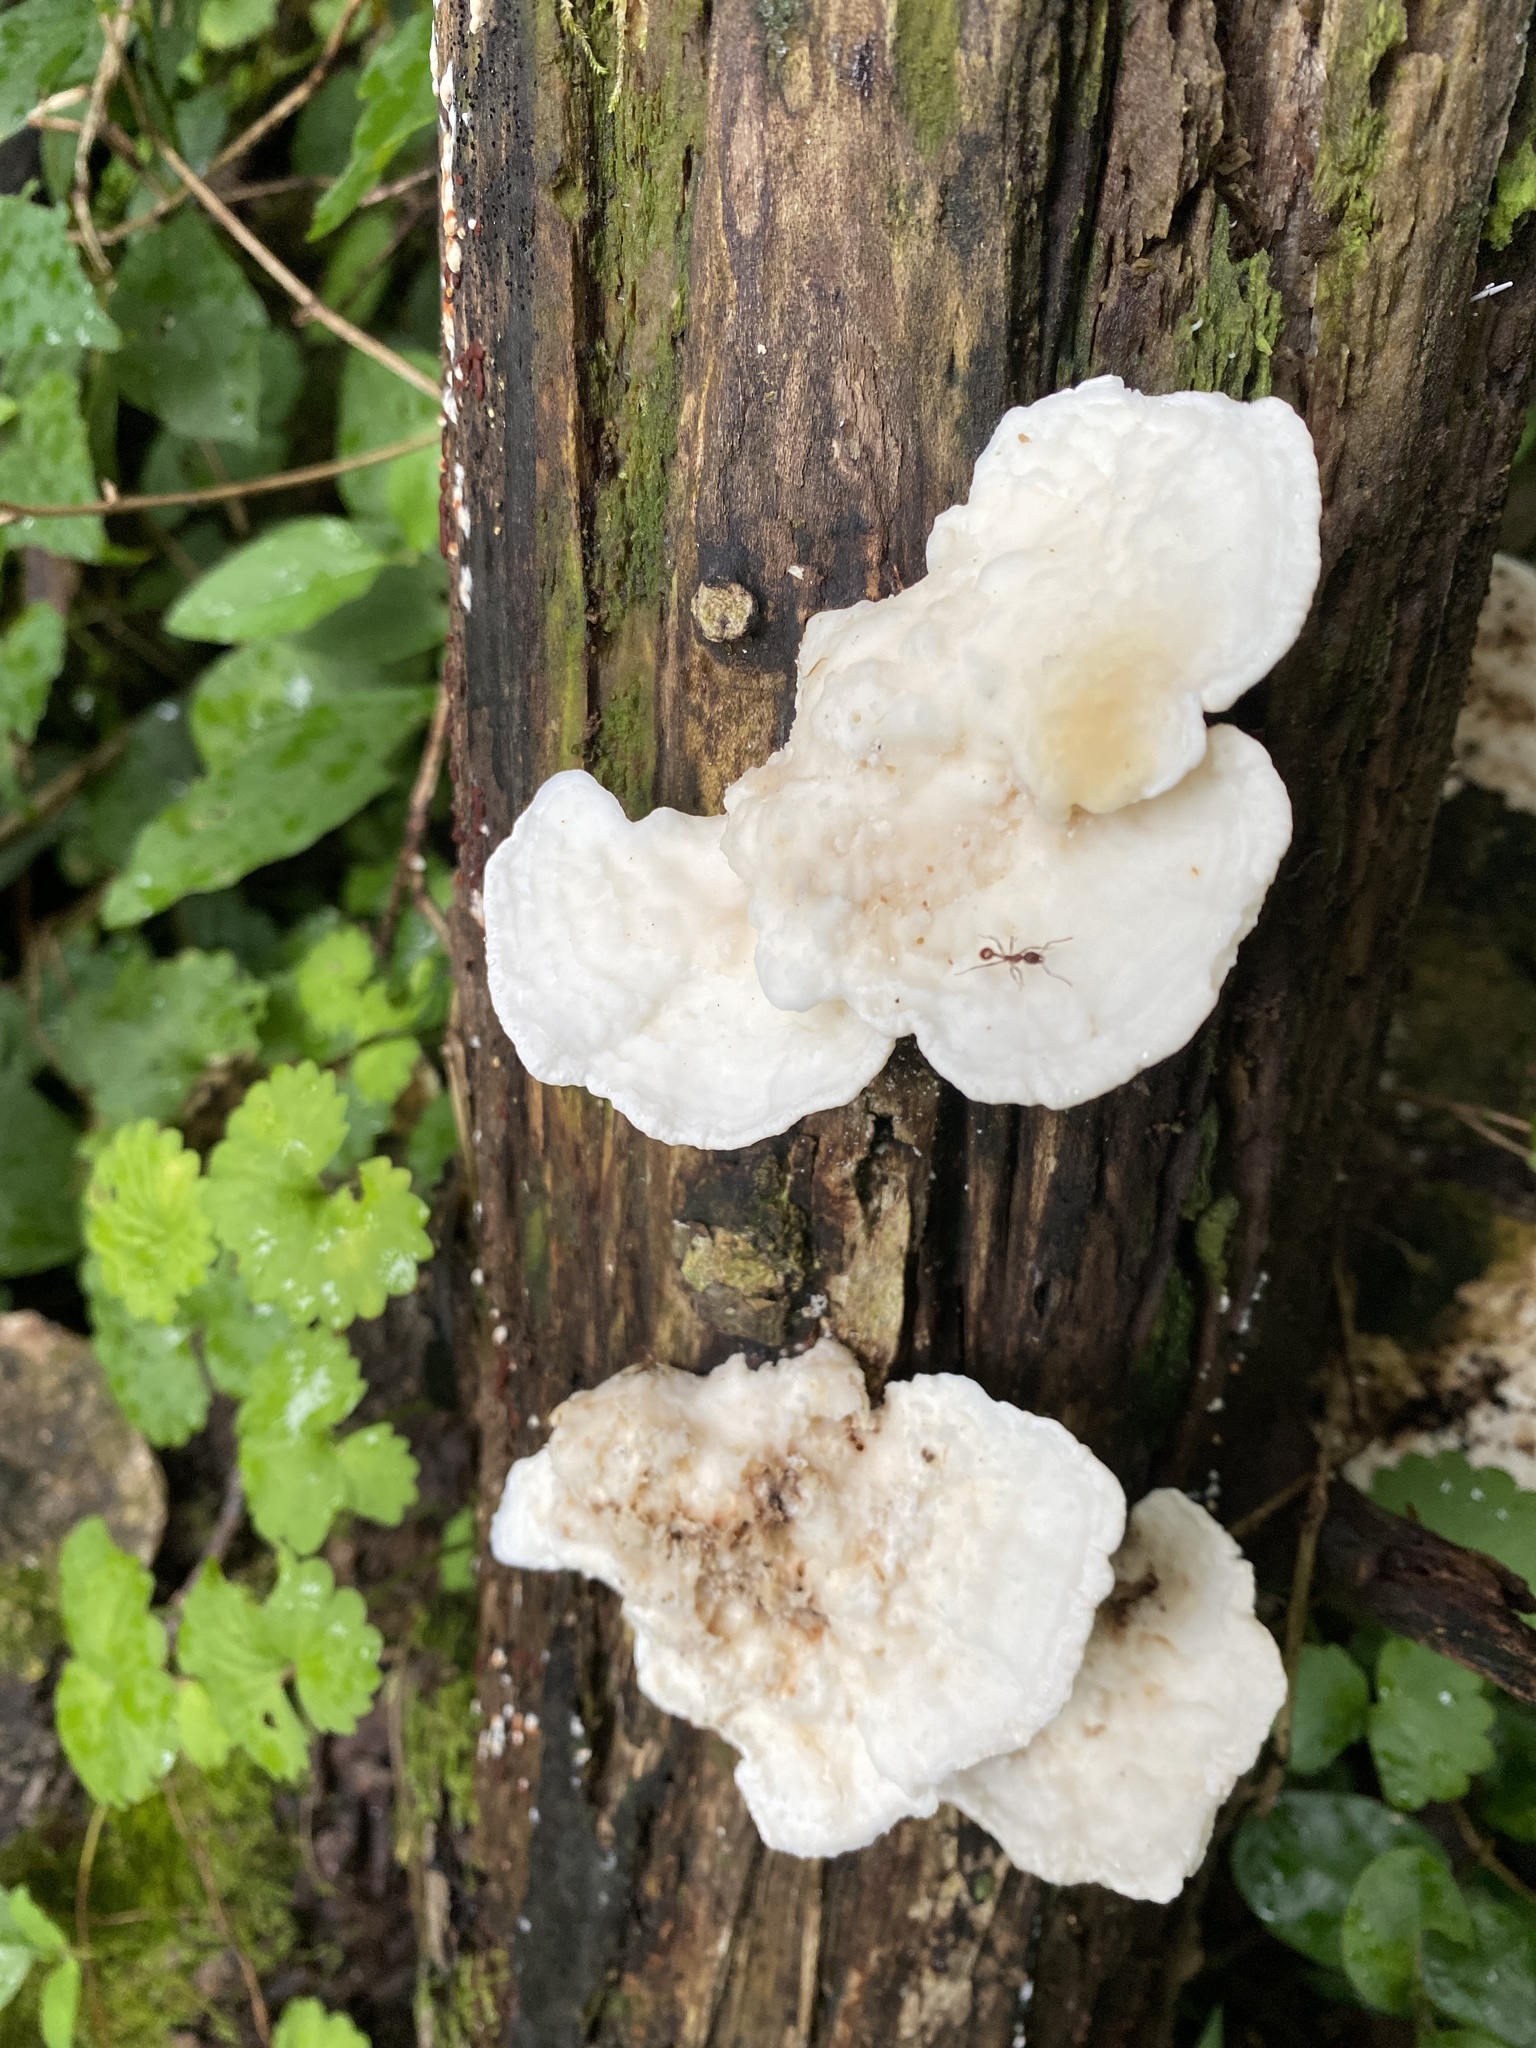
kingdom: Fungi
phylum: Basidiomycota
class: Agaricomycetes
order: Polyporales
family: Polyporaceae
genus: Trametes
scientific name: Trametes elegans
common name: White maze polypore
